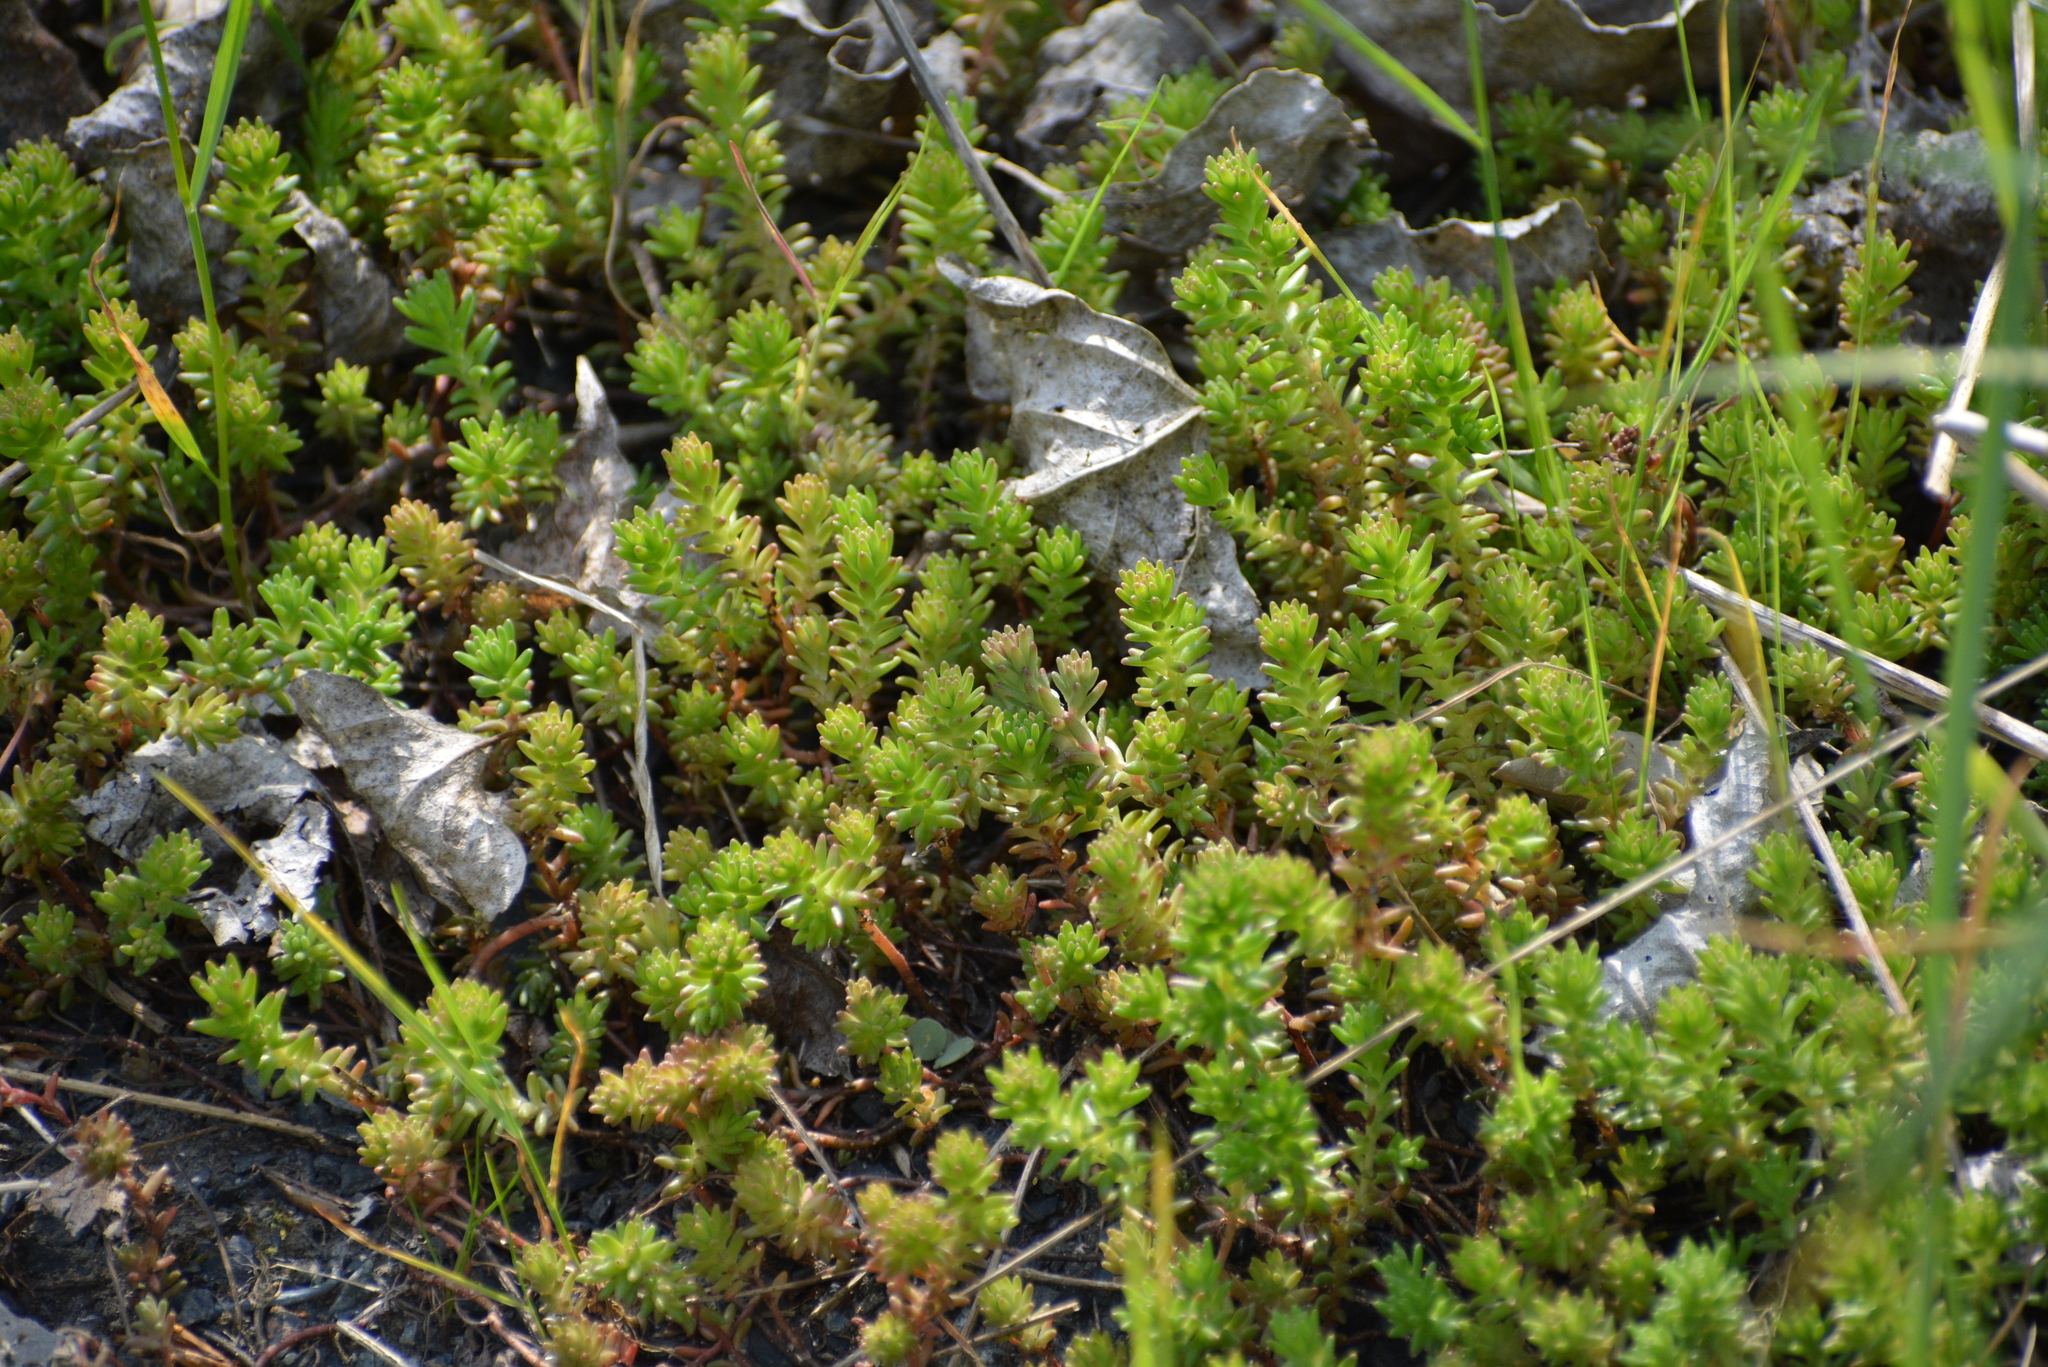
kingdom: Plantae
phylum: Tracheophyta
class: Magnoliopsida
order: Saxifragales
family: Crassulaceae
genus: Sedum
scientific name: Sedum sexangulare
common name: Tasteless stonecrop
